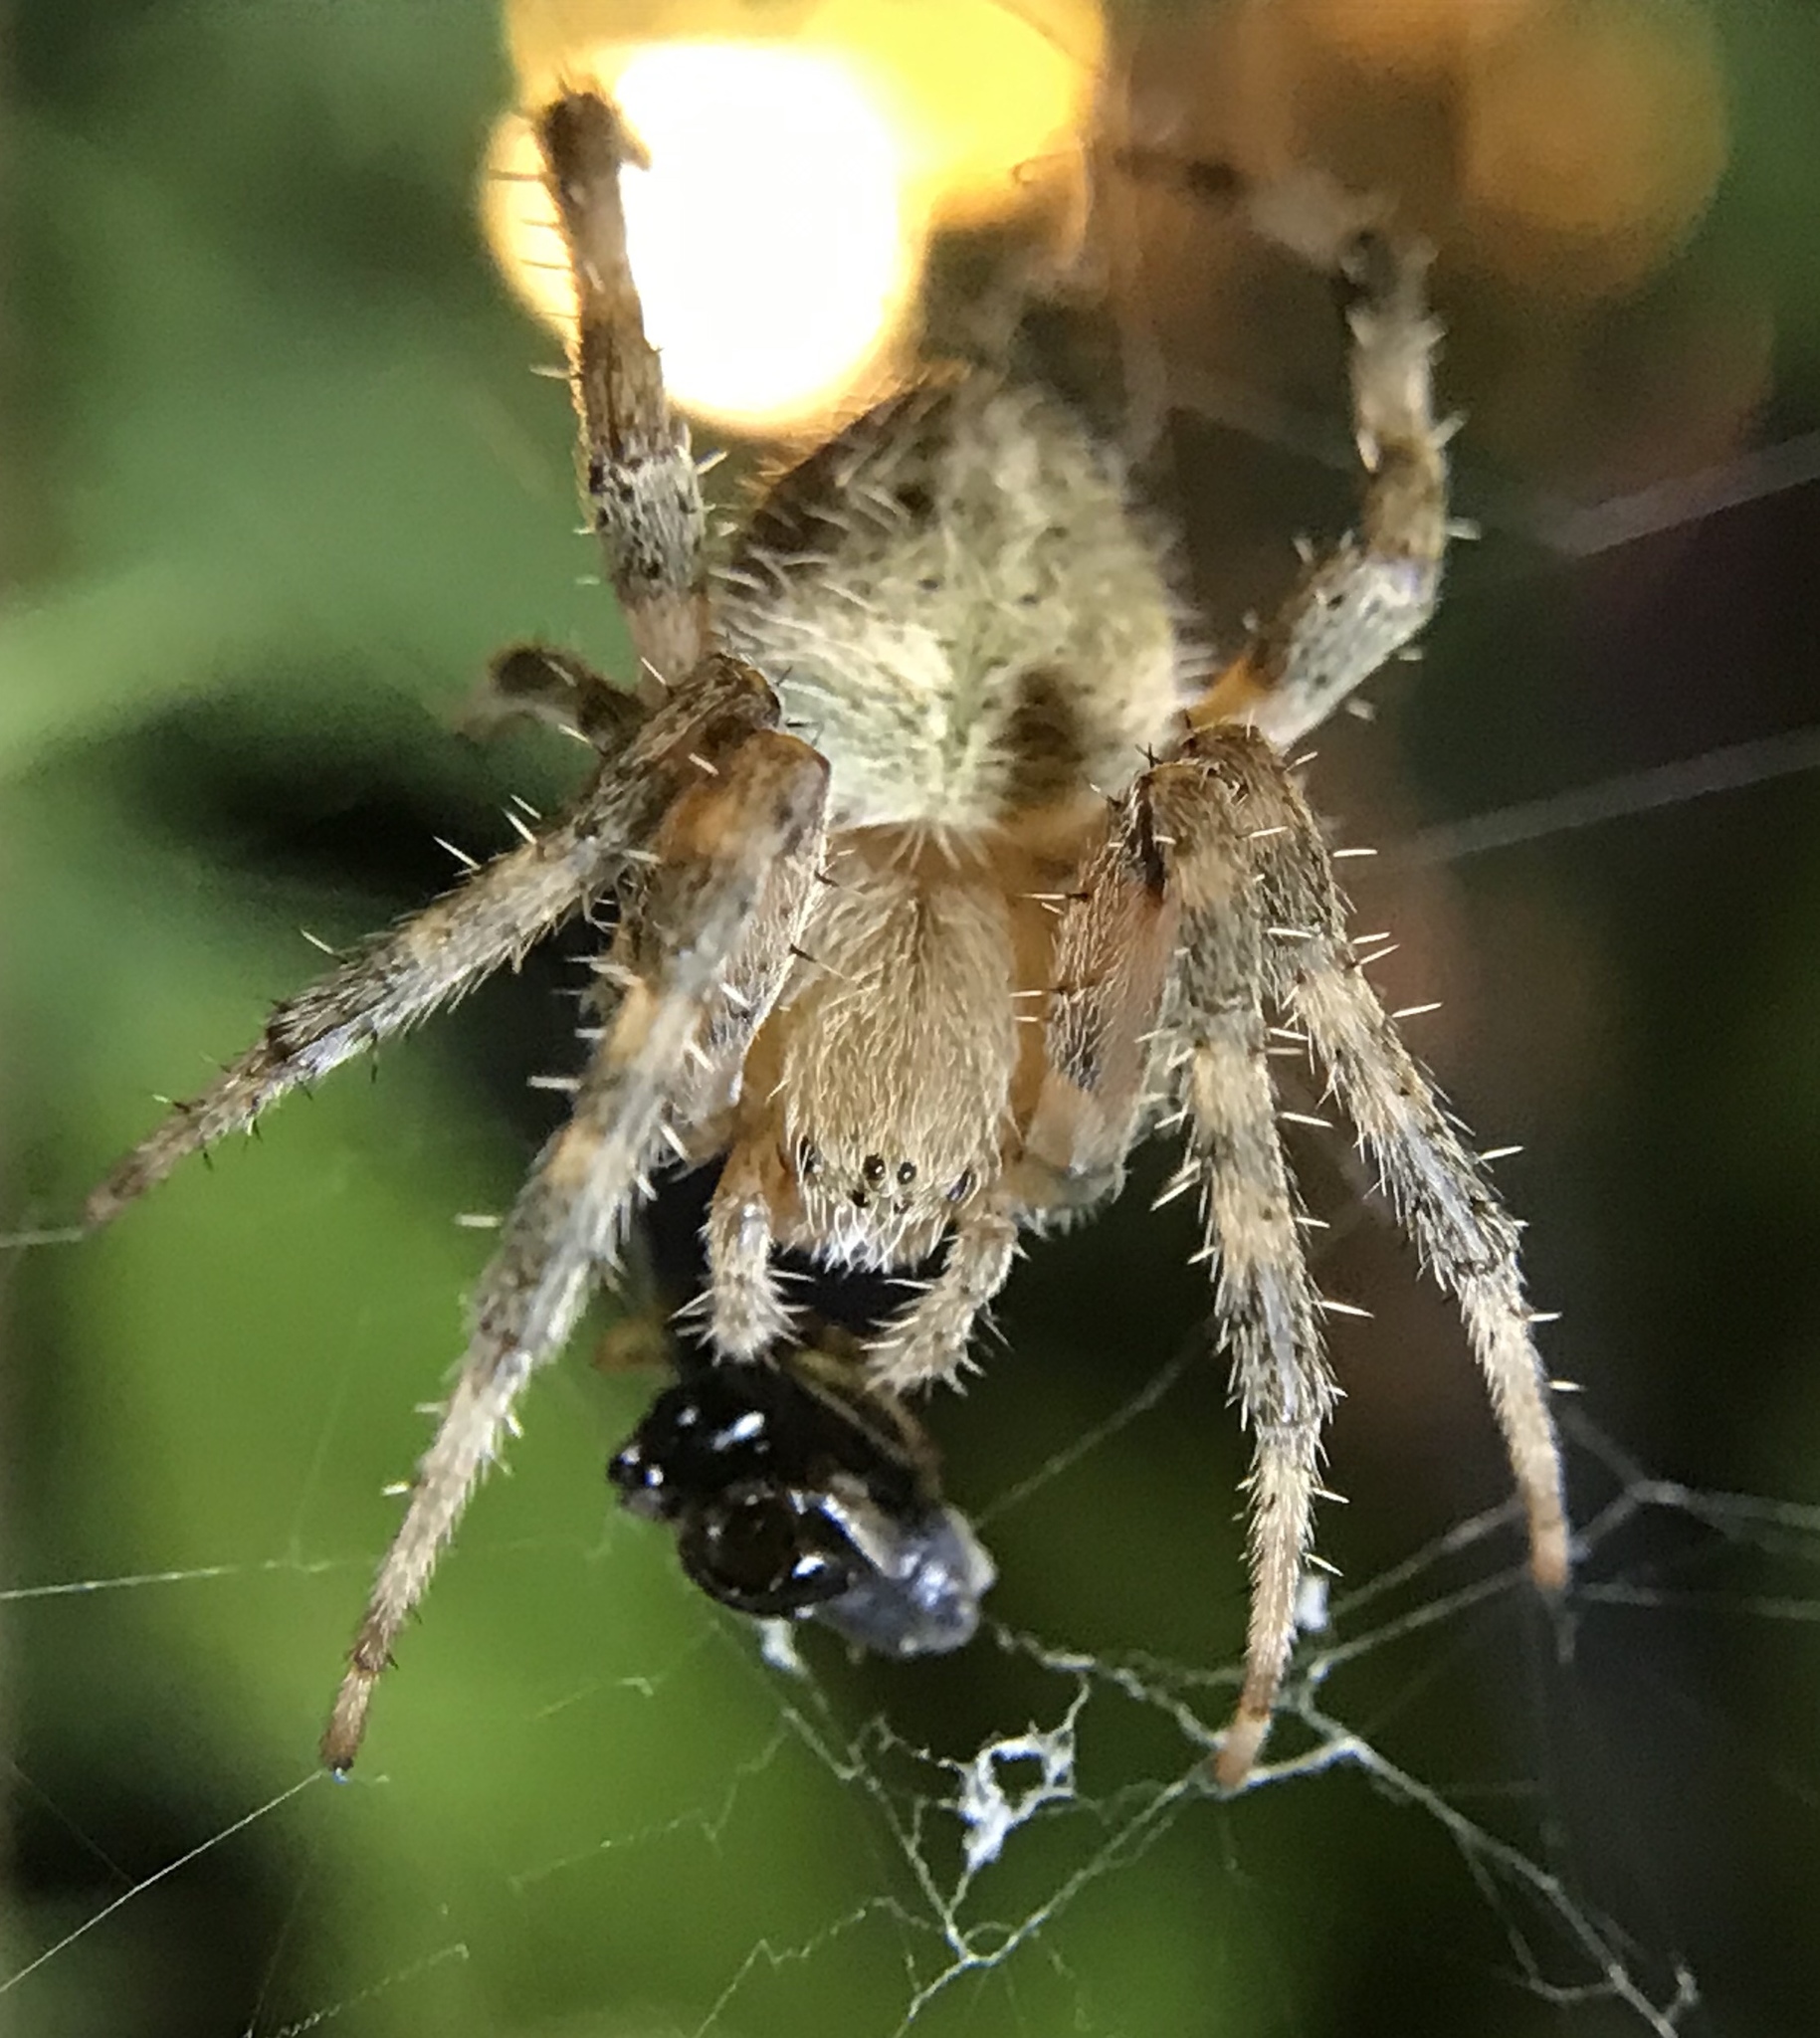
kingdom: Animalia
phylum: Arthropoda
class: Arachnida
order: Araneae
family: Araneidae
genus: Neoscona
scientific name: Neoscona crucifera
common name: Spotted orbweaver
